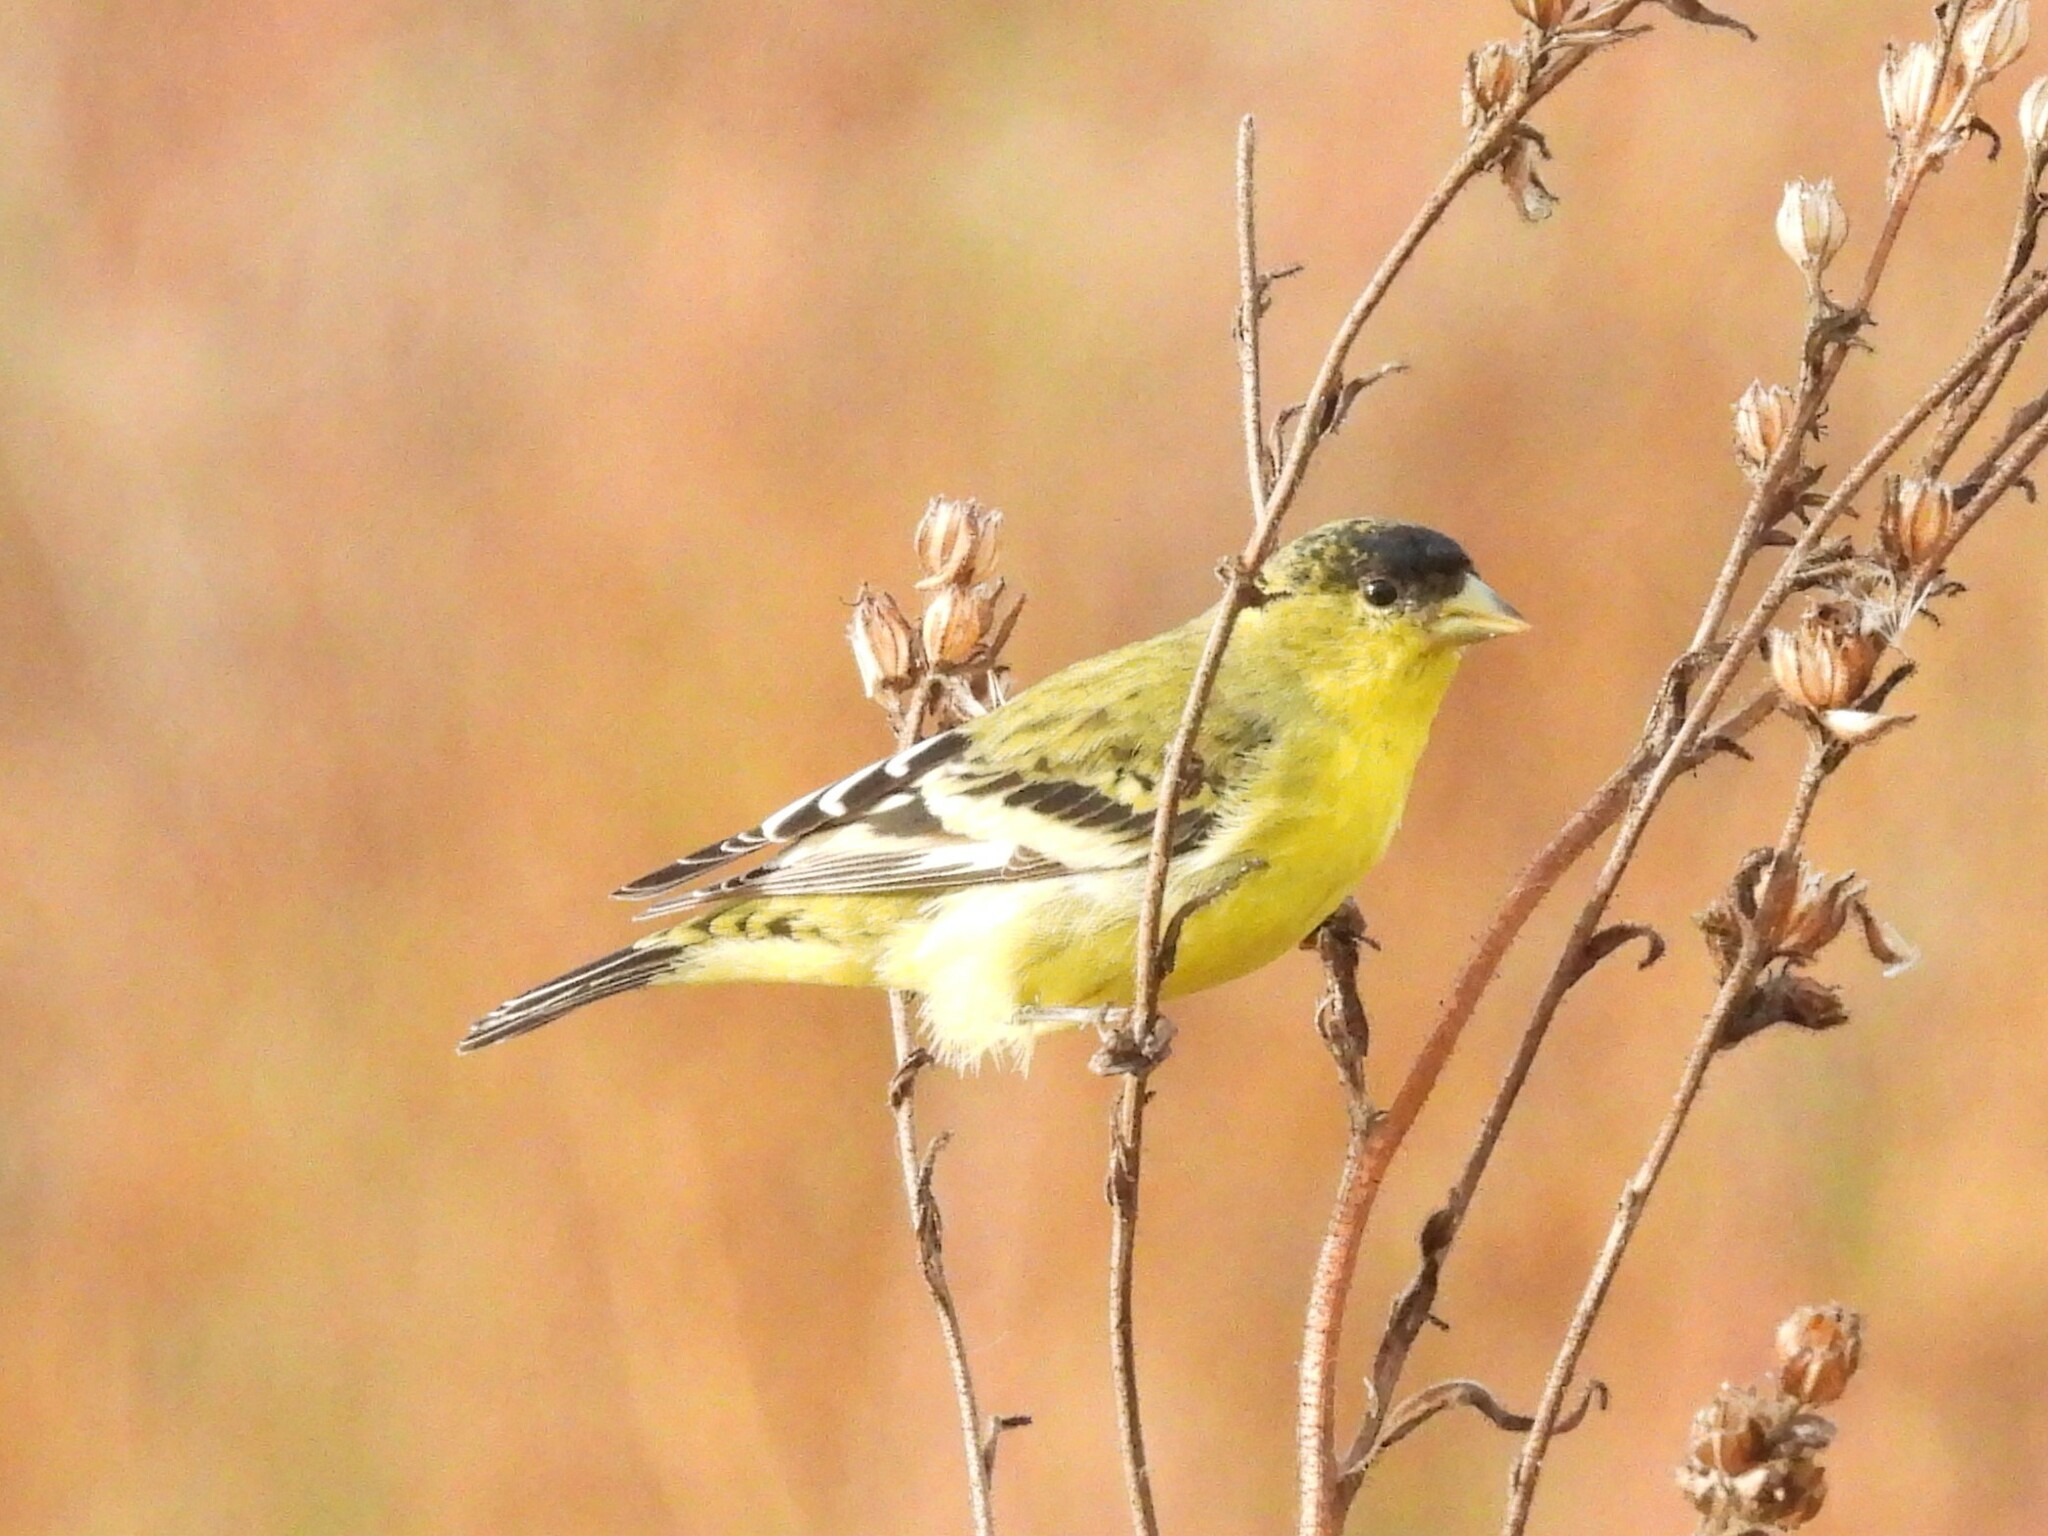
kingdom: Animalia
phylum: Chordata
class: Aves
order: Passeriformes
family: Fringillidae
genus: Spinus
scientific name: Spinus psaltria
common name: Lesser goldfinch
